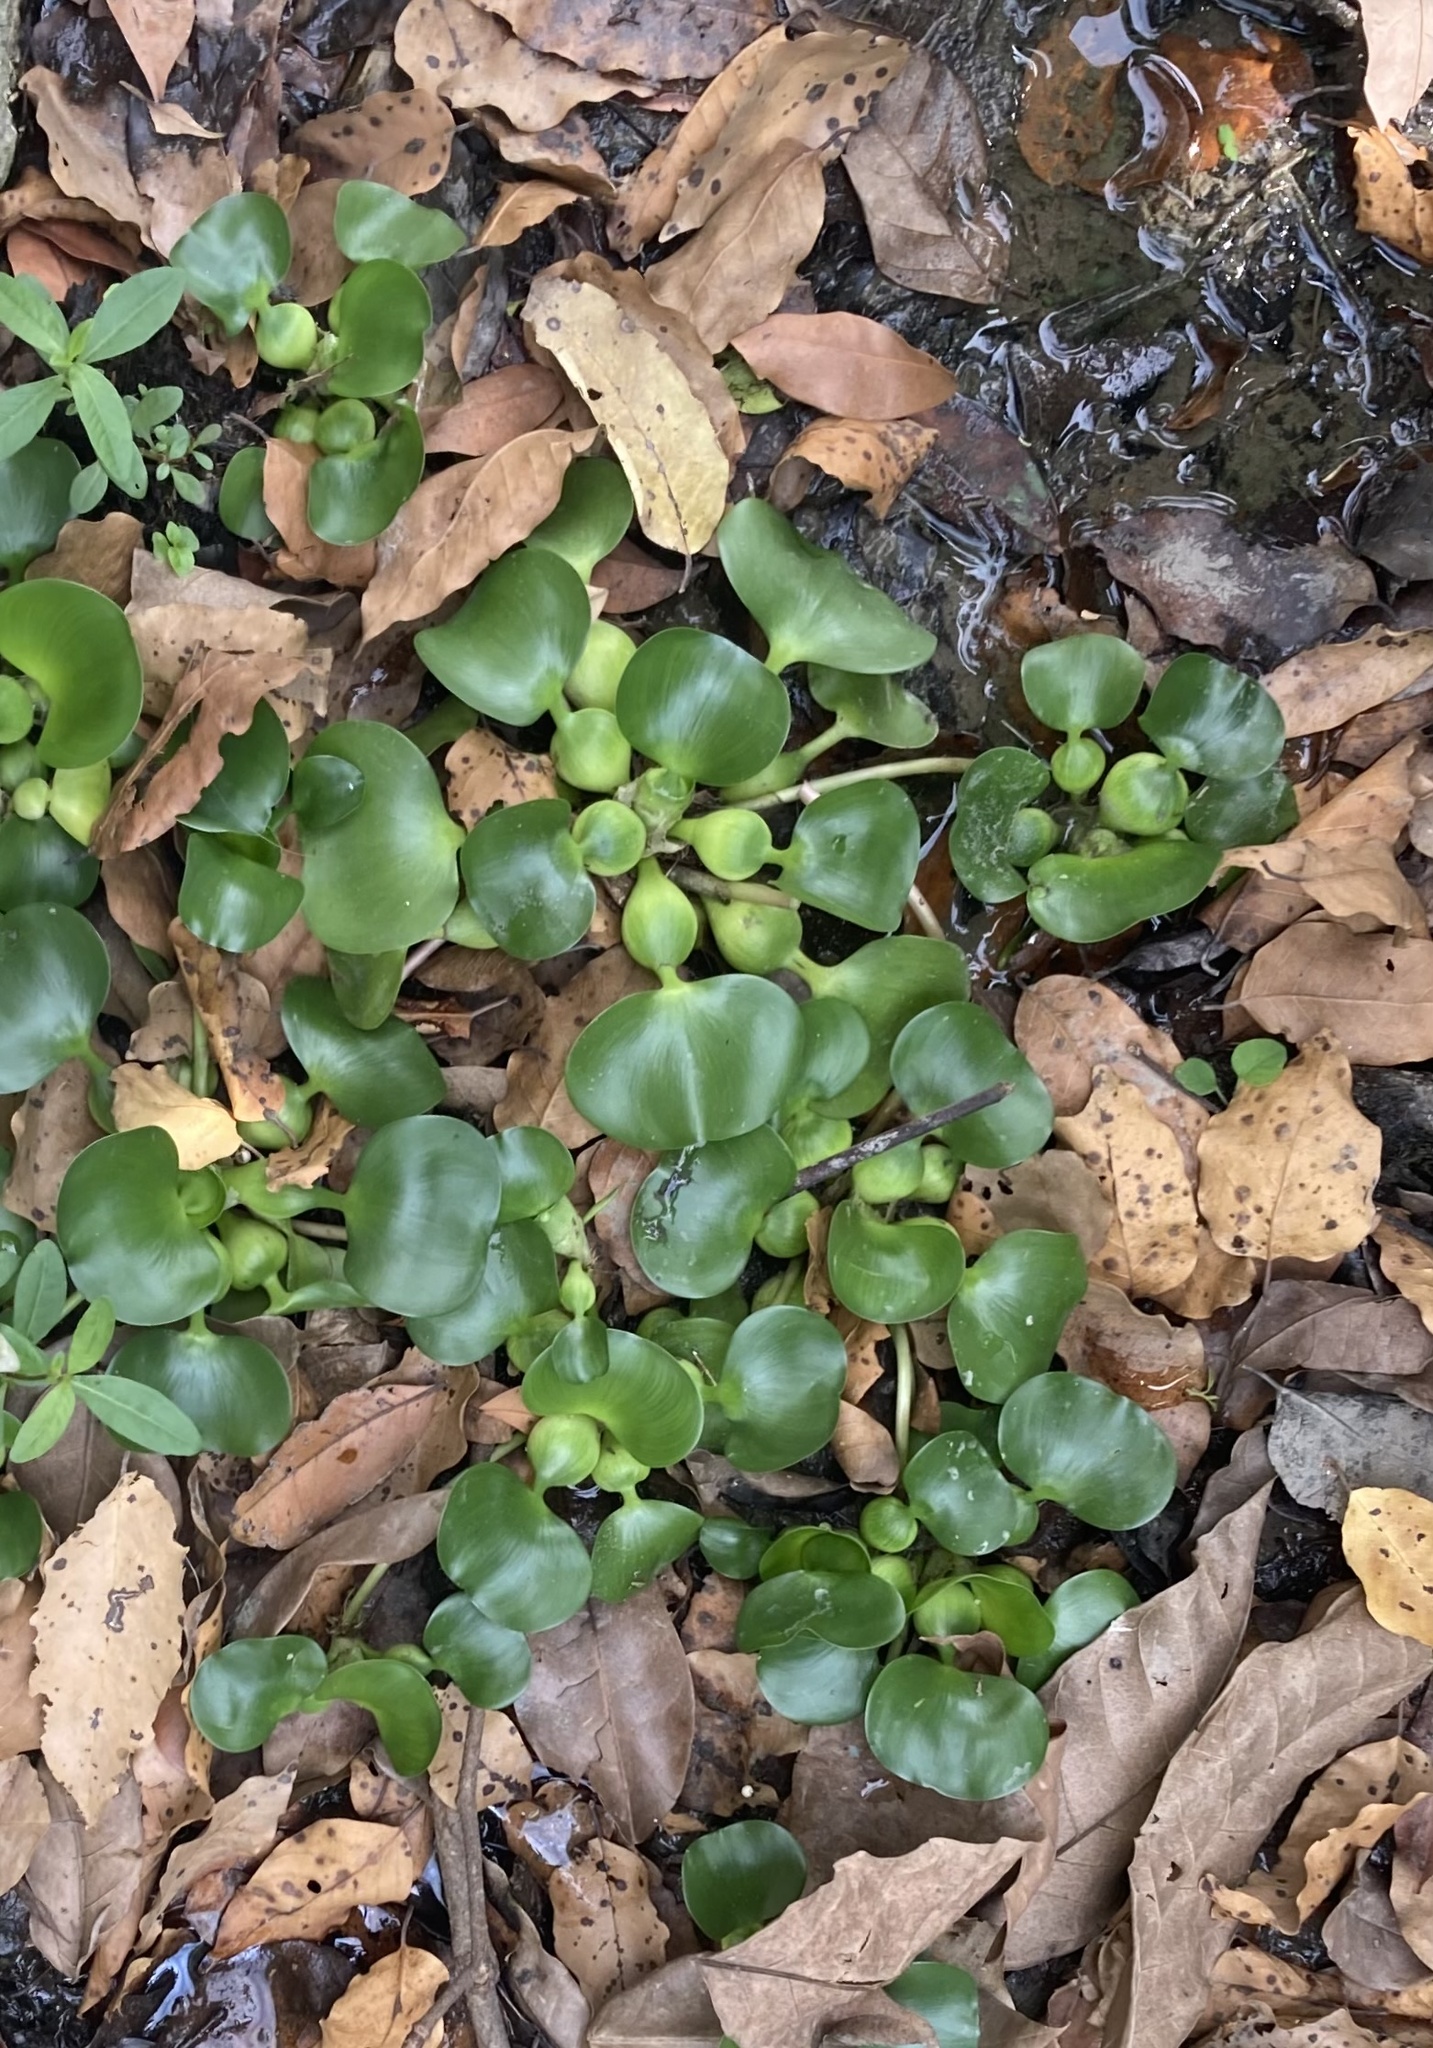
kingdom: Plantae
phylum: Tracheophyta
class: Liliopsida
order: Commelinales
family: Pontederiaceae
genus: Pontederia
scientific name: Pontederia crassipes
